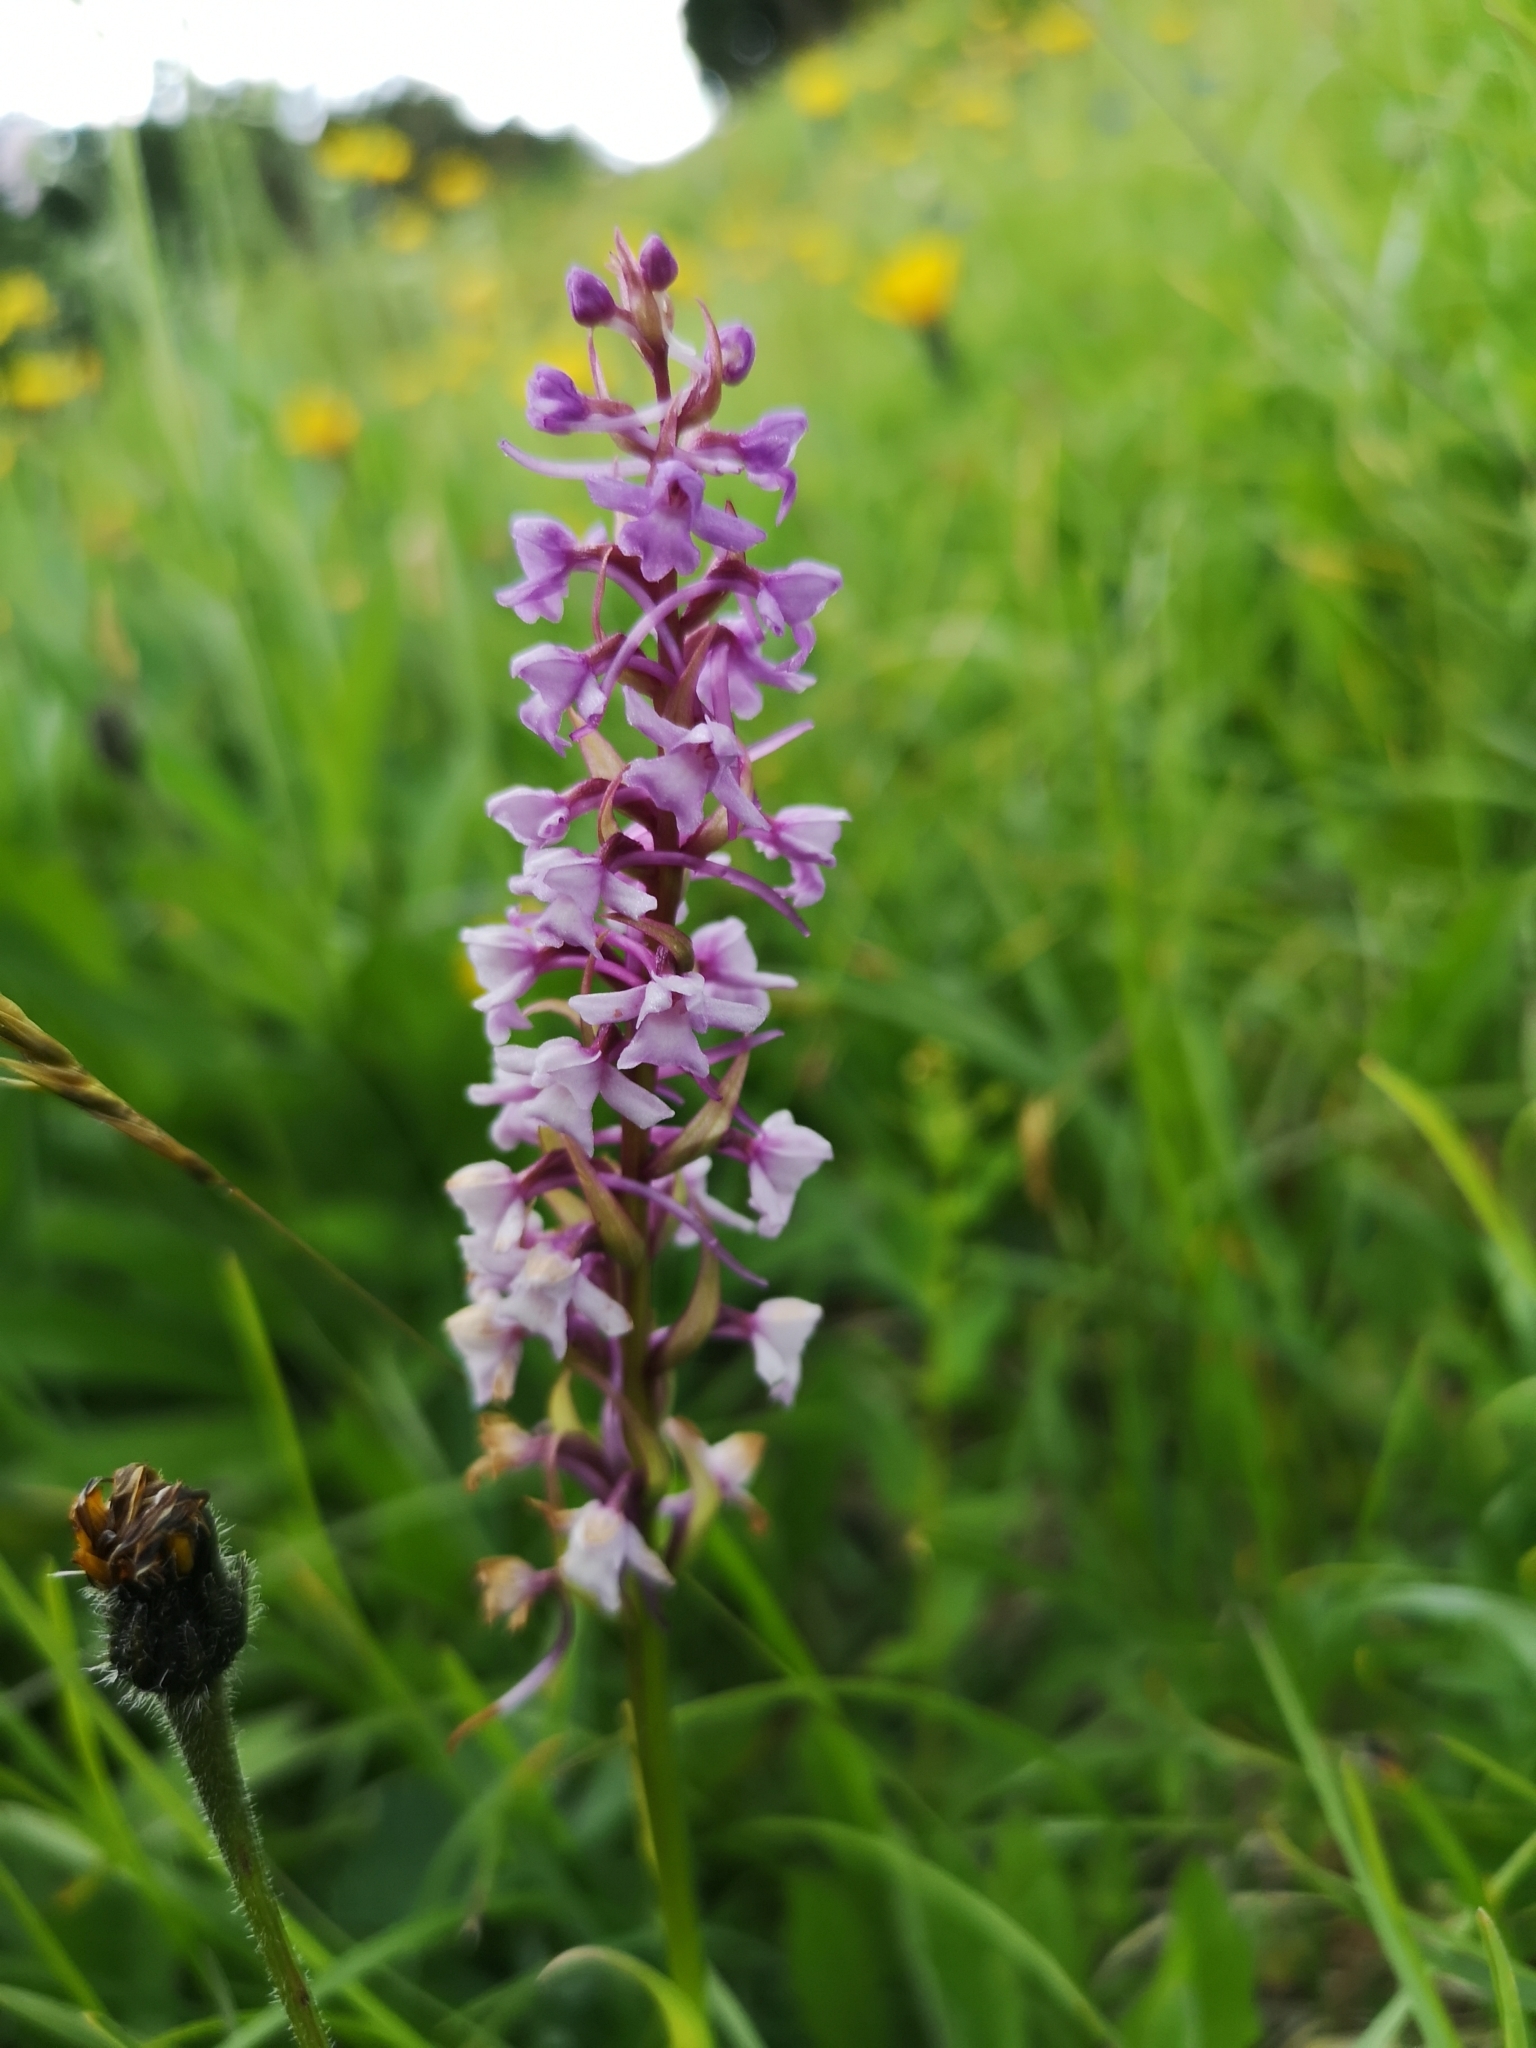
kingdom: Plantae
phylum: Tracheophyta
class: Liliopsida
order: Asparagales
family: Orchidaceae
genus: Gymnadenia
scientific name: Gymnadenia conopsea
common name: Fragrant orchid
